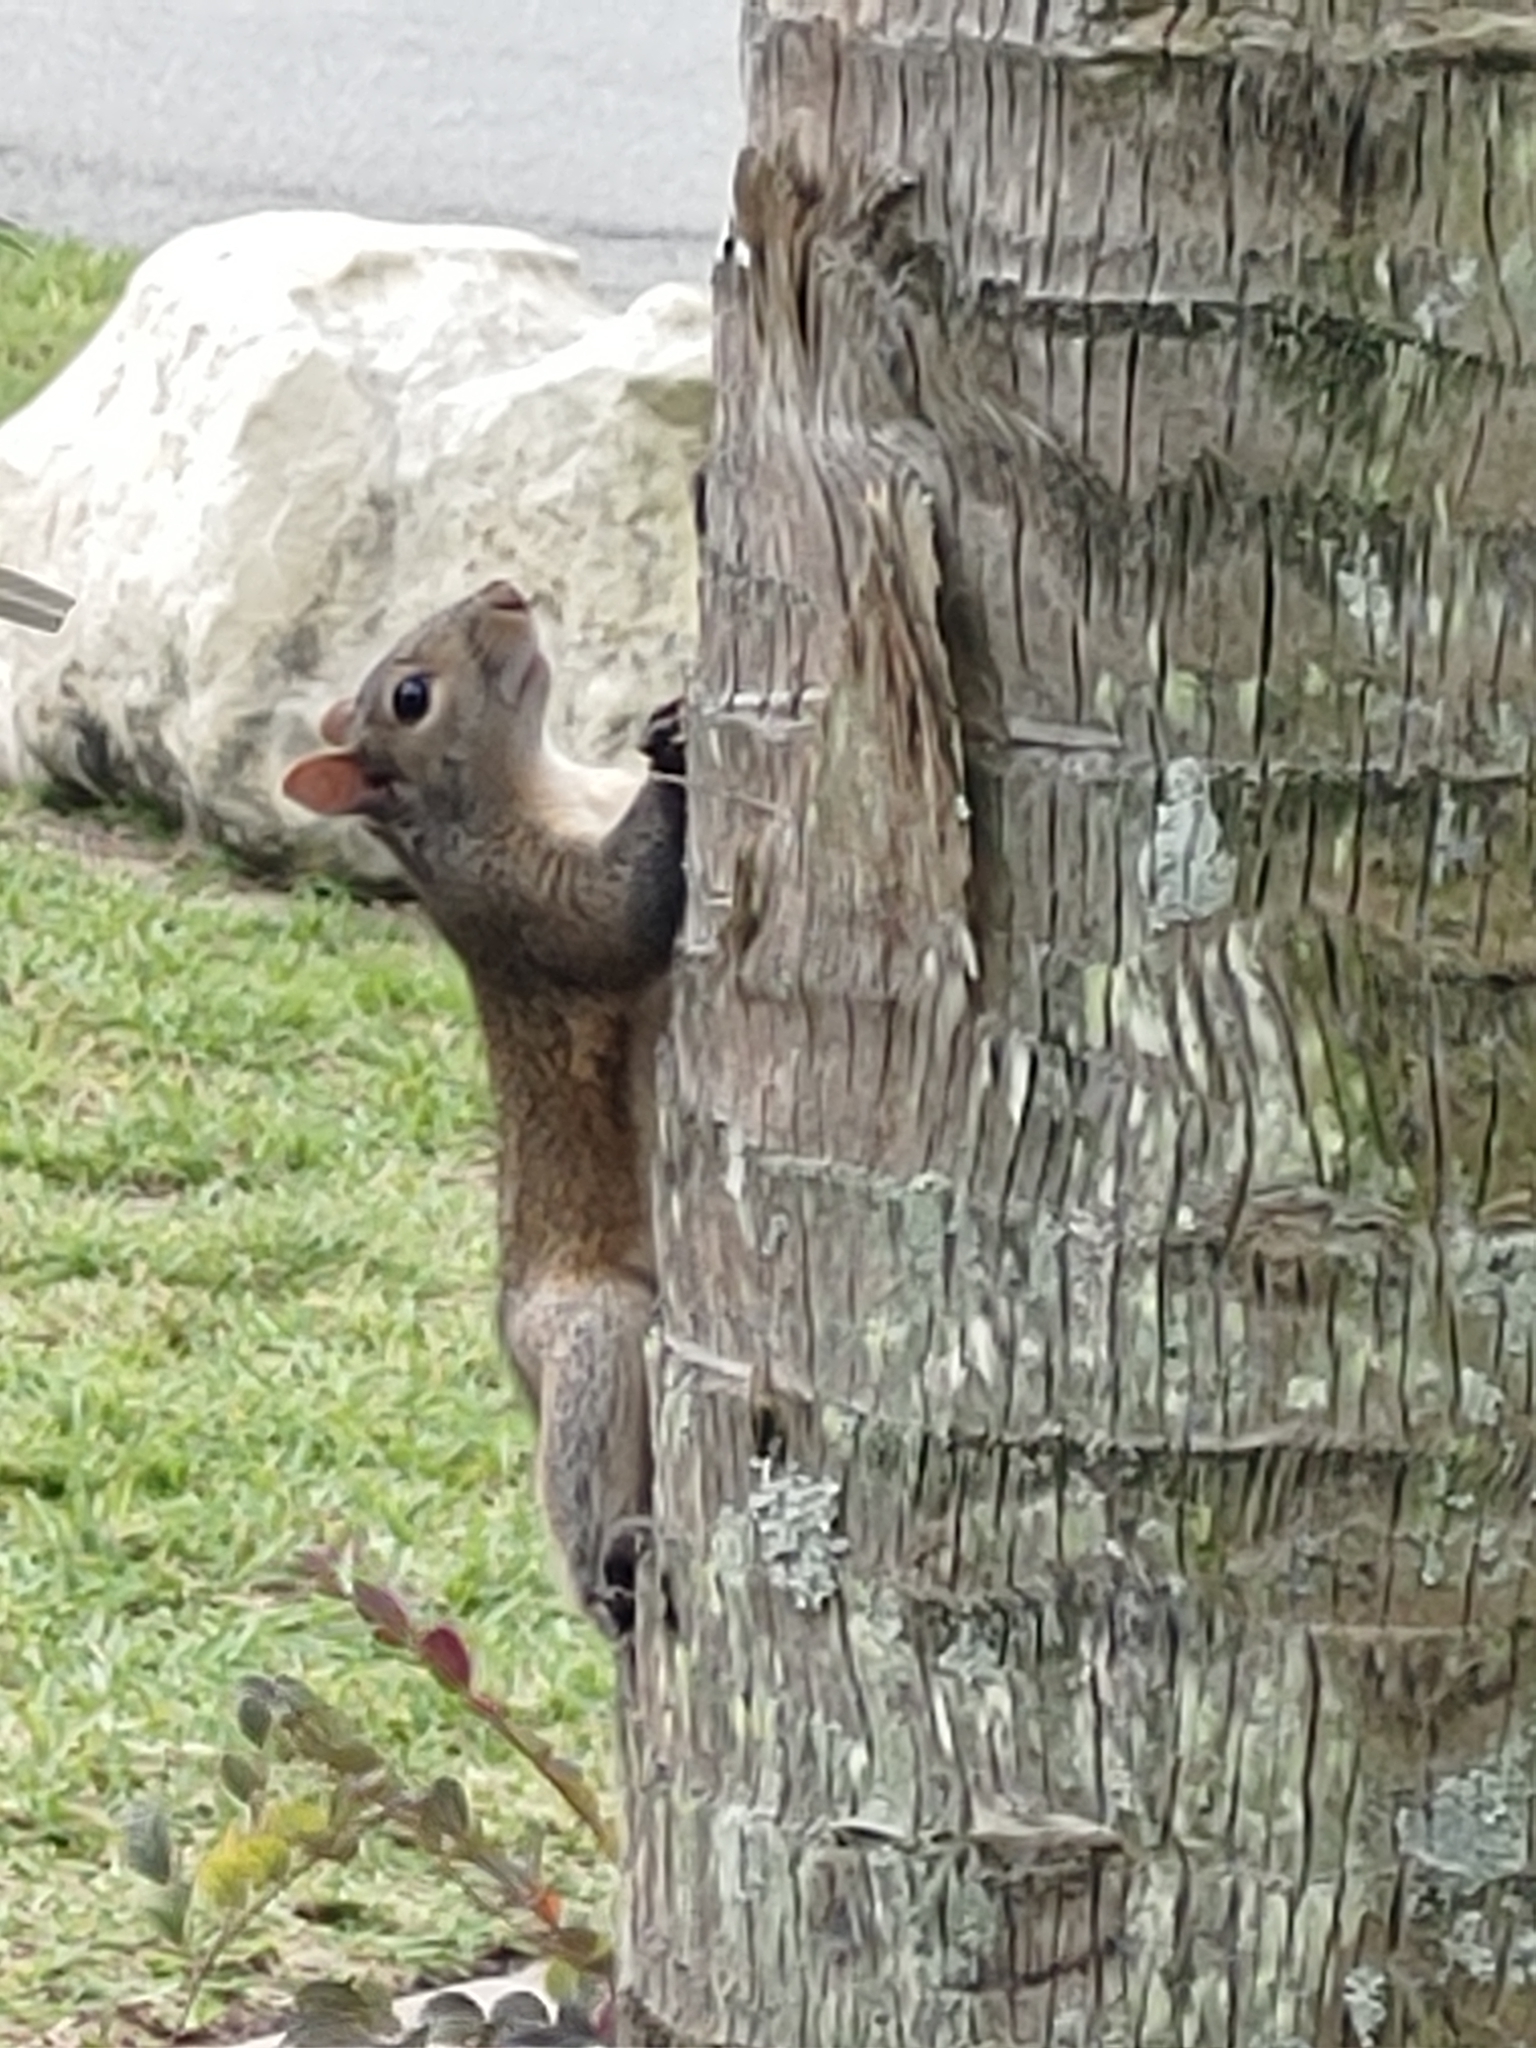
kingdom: Animalia
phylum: Chordata
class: Mammalia
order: Rodentia
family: Sciuridae
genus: Sciurus
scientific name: Sciurus carolinensis
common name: Eastern gray squirrel
